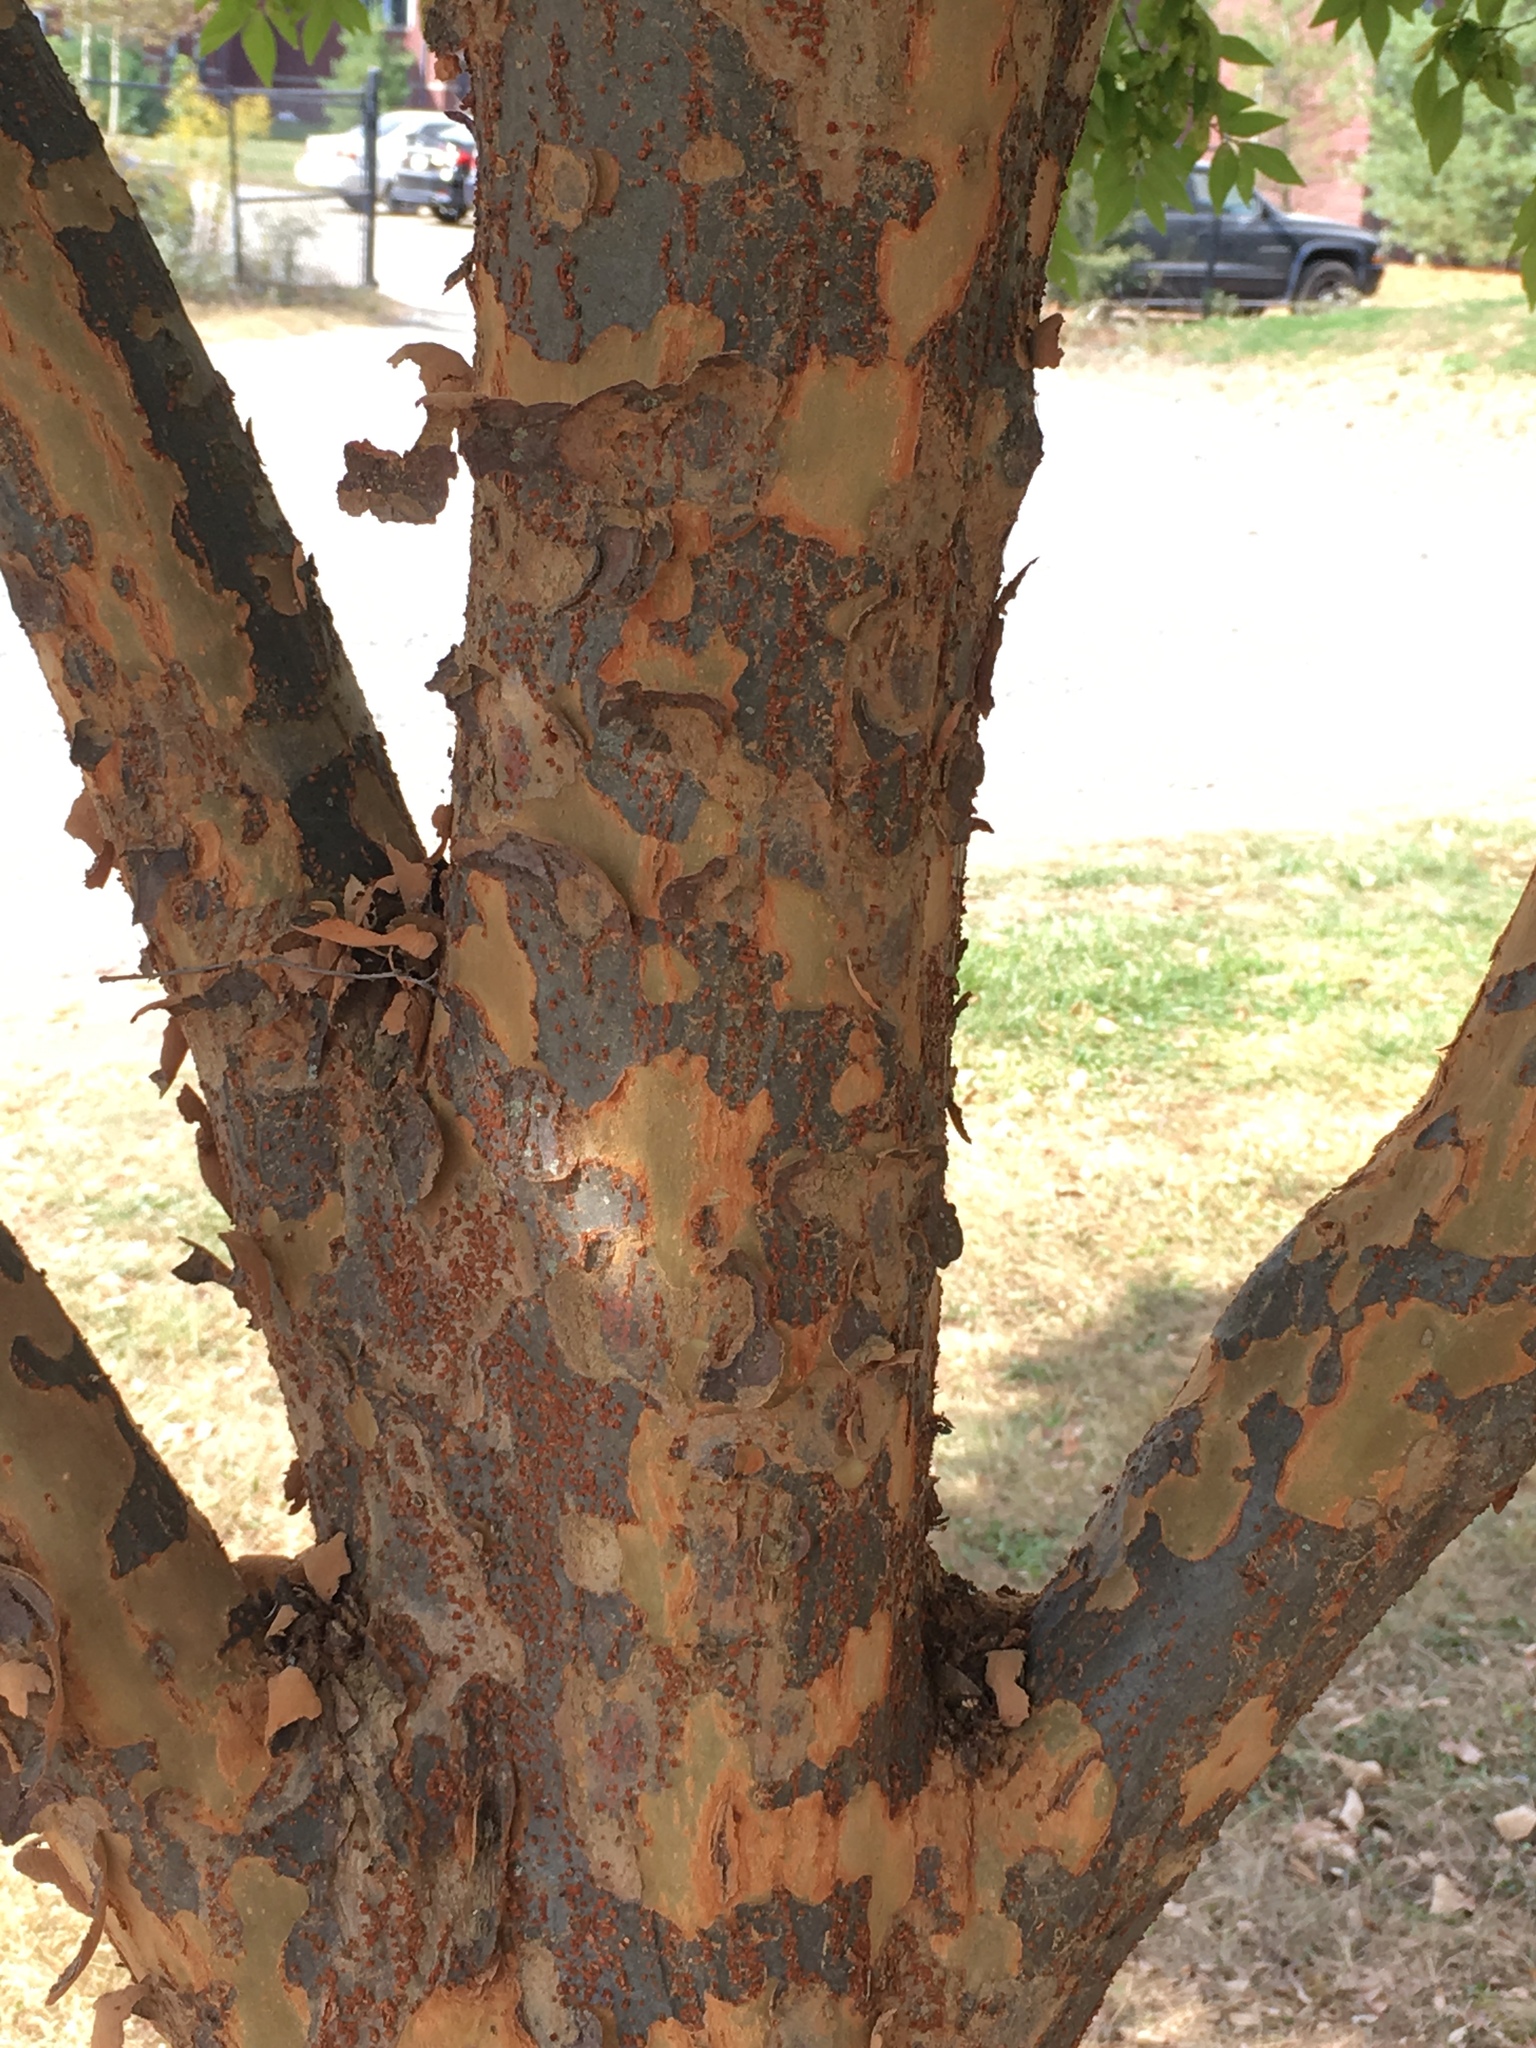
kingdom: Plantae
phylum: Tracheophyta
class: Magnoliopsida
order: Rosales
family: Ulmaceae
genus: Ulmus
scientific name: Ulmus parvifolia
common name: Chinese elm
